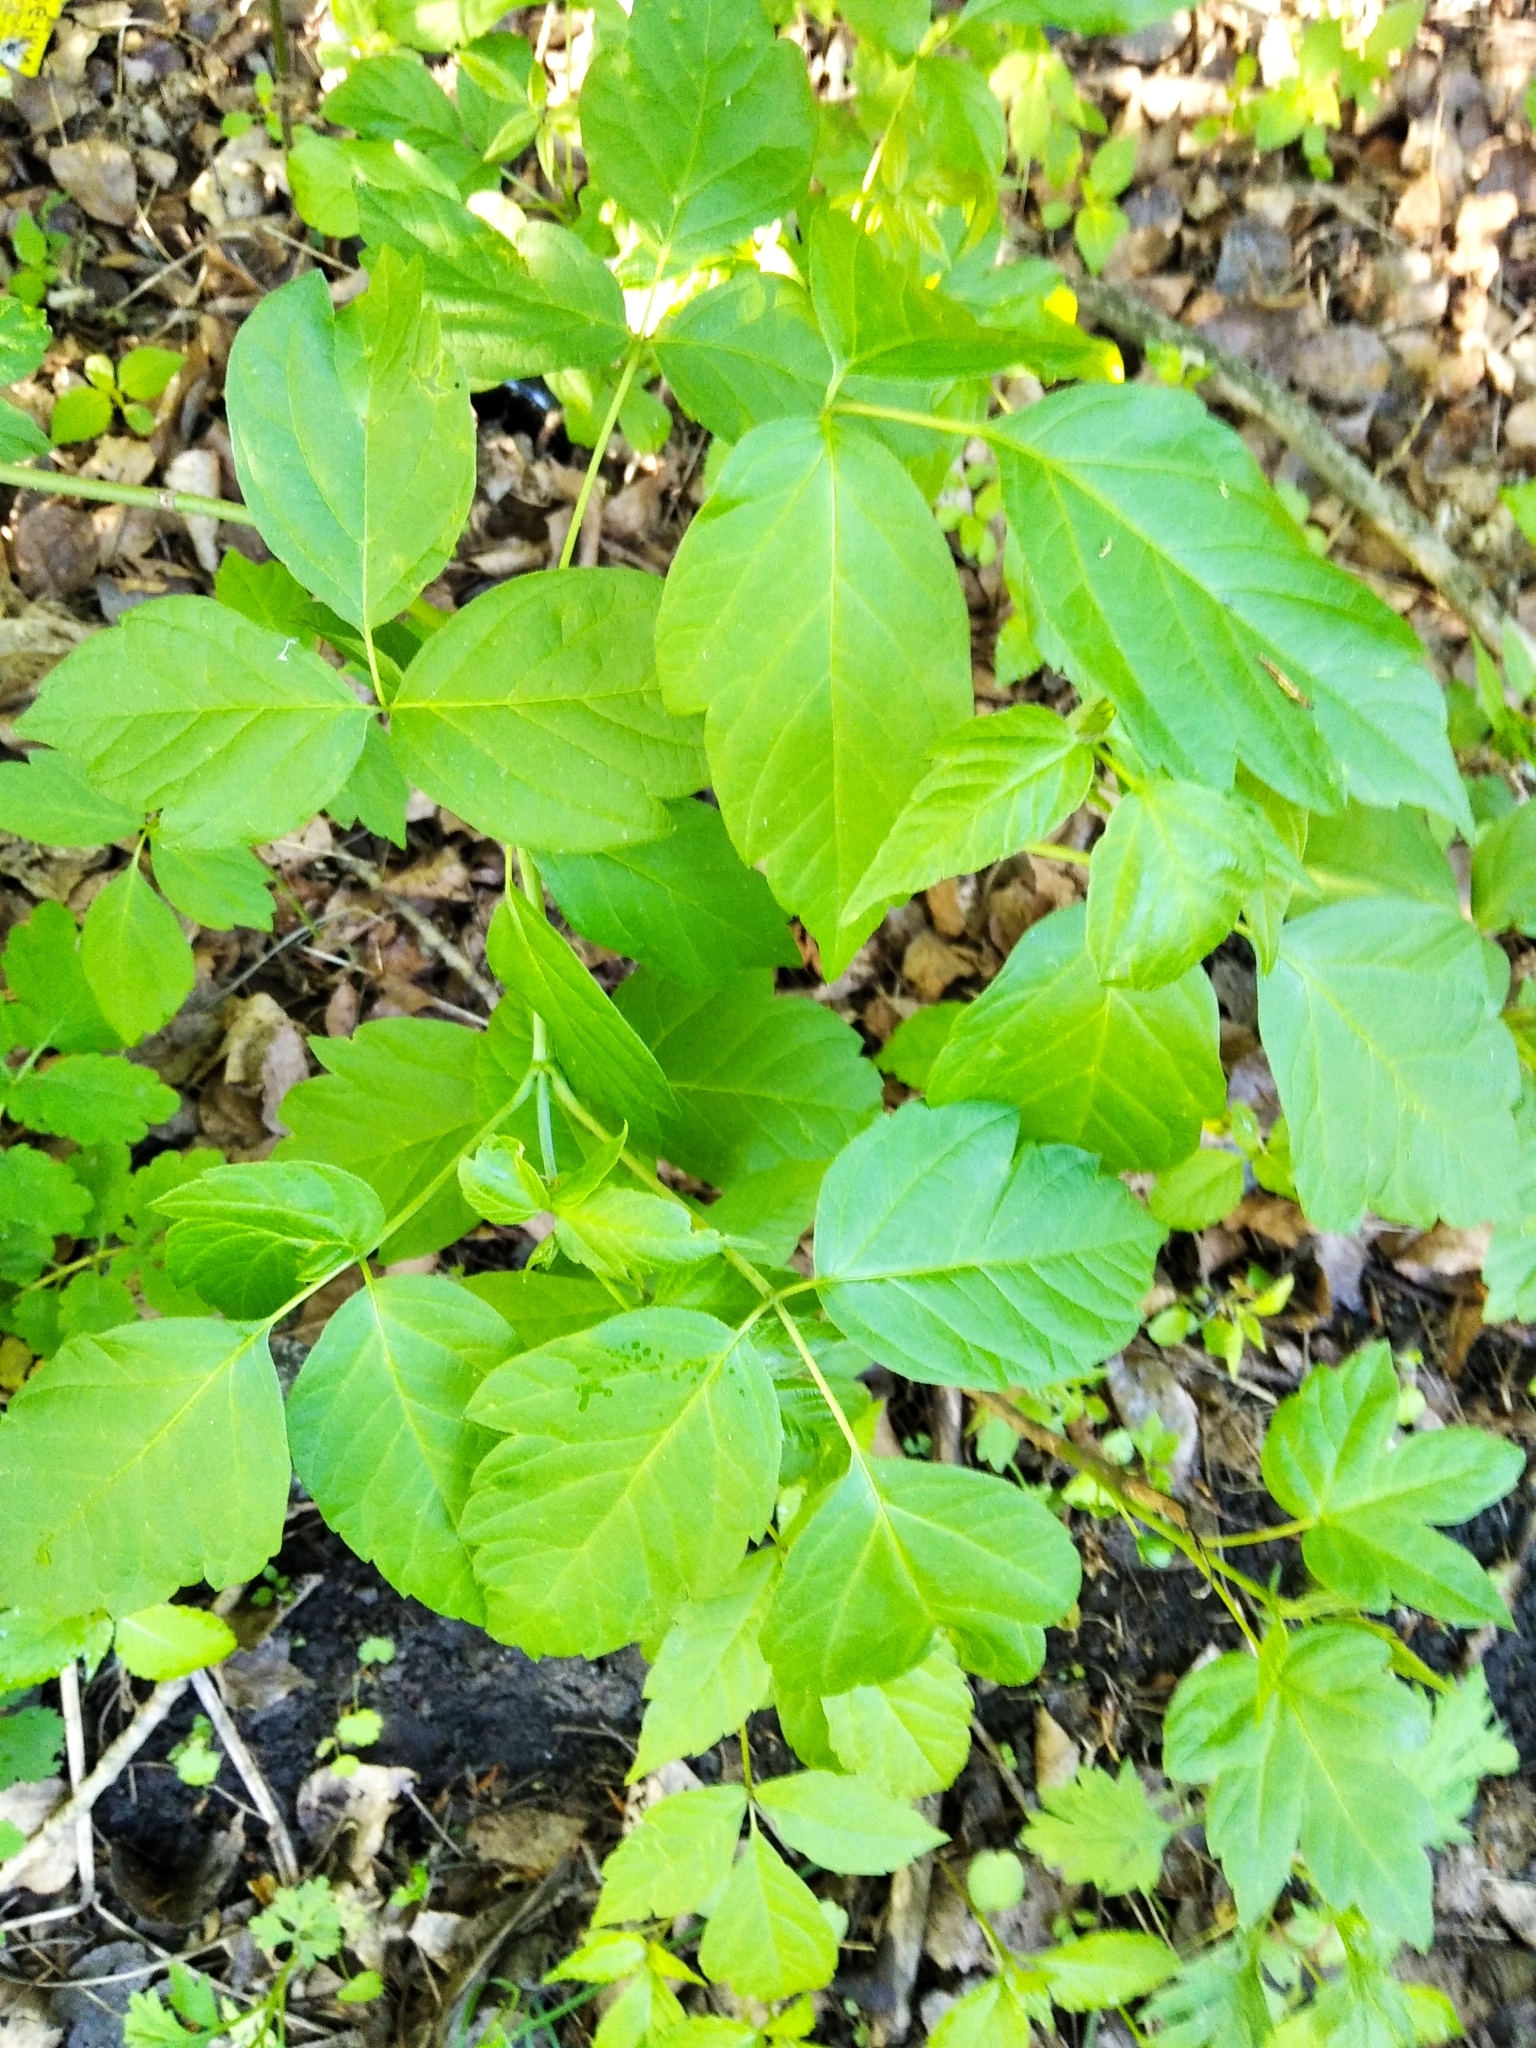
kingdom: Plantae
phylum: Tracheophyta
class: Magnoliopsida
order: Sapindales
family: Sapindaceae
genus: Acer
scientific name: Acer negundo
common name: Ashleaf maple
